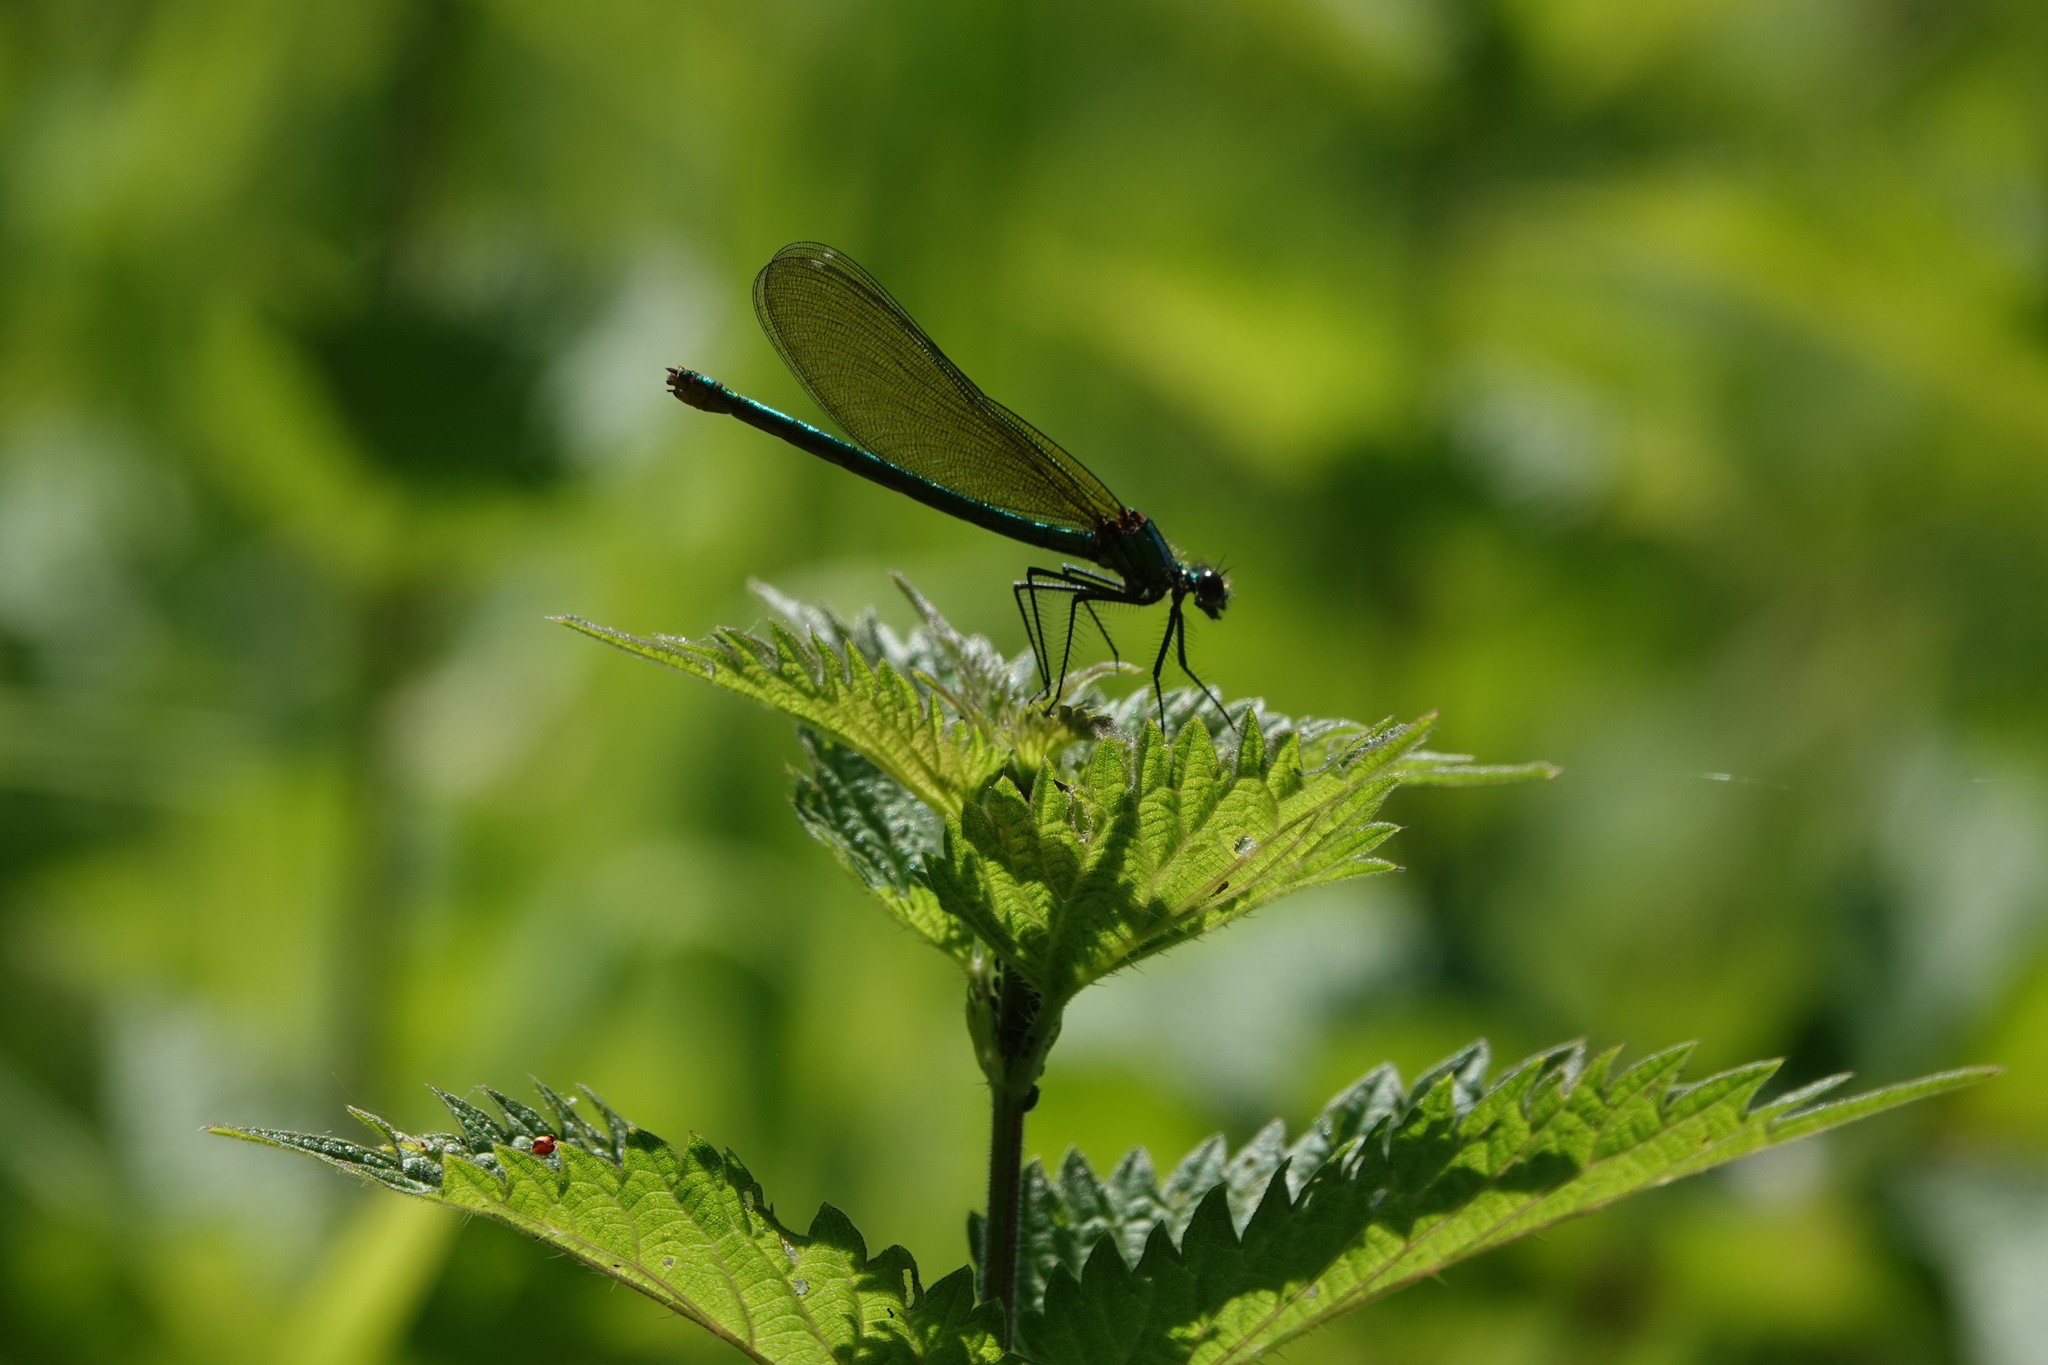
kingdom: Animalia
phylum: Arthropoda
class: Insecta
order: Odonata
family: Calopterygidae
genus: Calopteryx
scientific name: Calopteryx splendens
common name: Banded demoiselle
